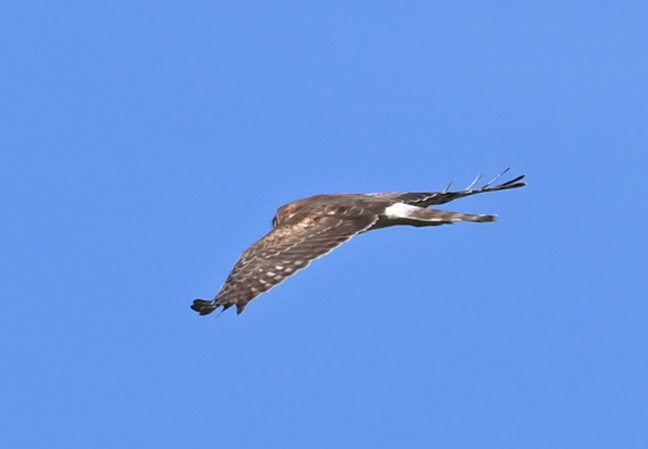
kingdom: Animalia
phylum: Chordata
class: Aves
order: Accipitriformes
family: Accipitridae
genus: Circus
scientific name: Circus cyaneus
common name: Hen harrier
